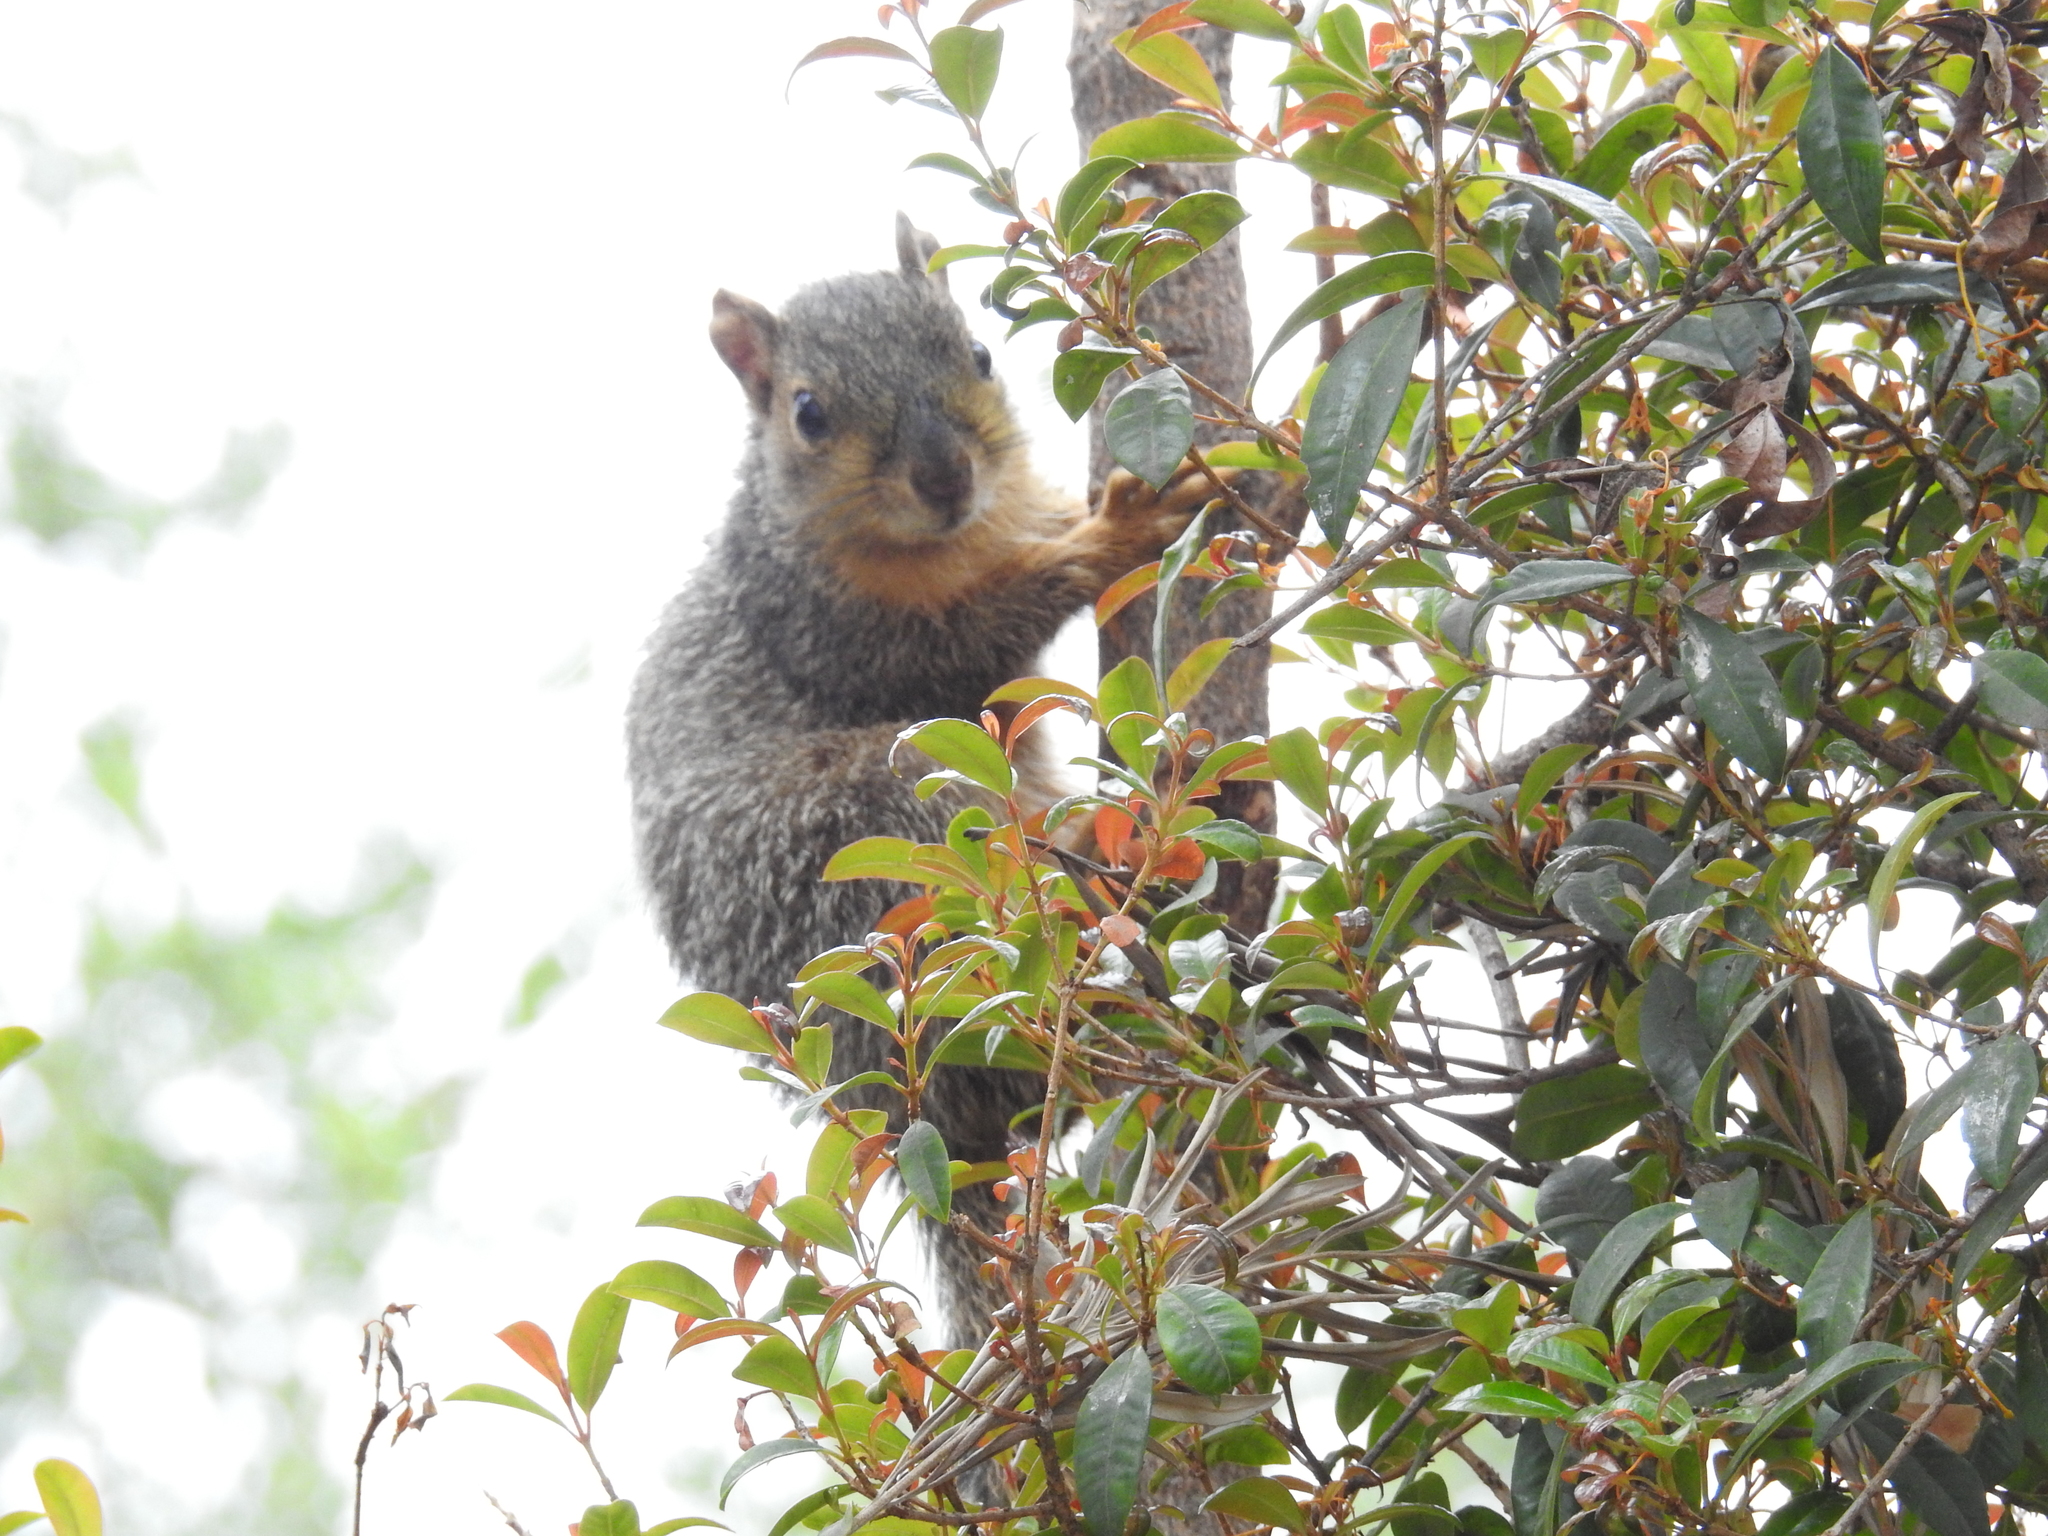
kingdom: Animalia
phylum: Chordata
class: Mammalia
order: Rodentia
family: Sciuridae
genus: Sciurus
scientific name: Sciurus niger
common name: Fox squirrel
